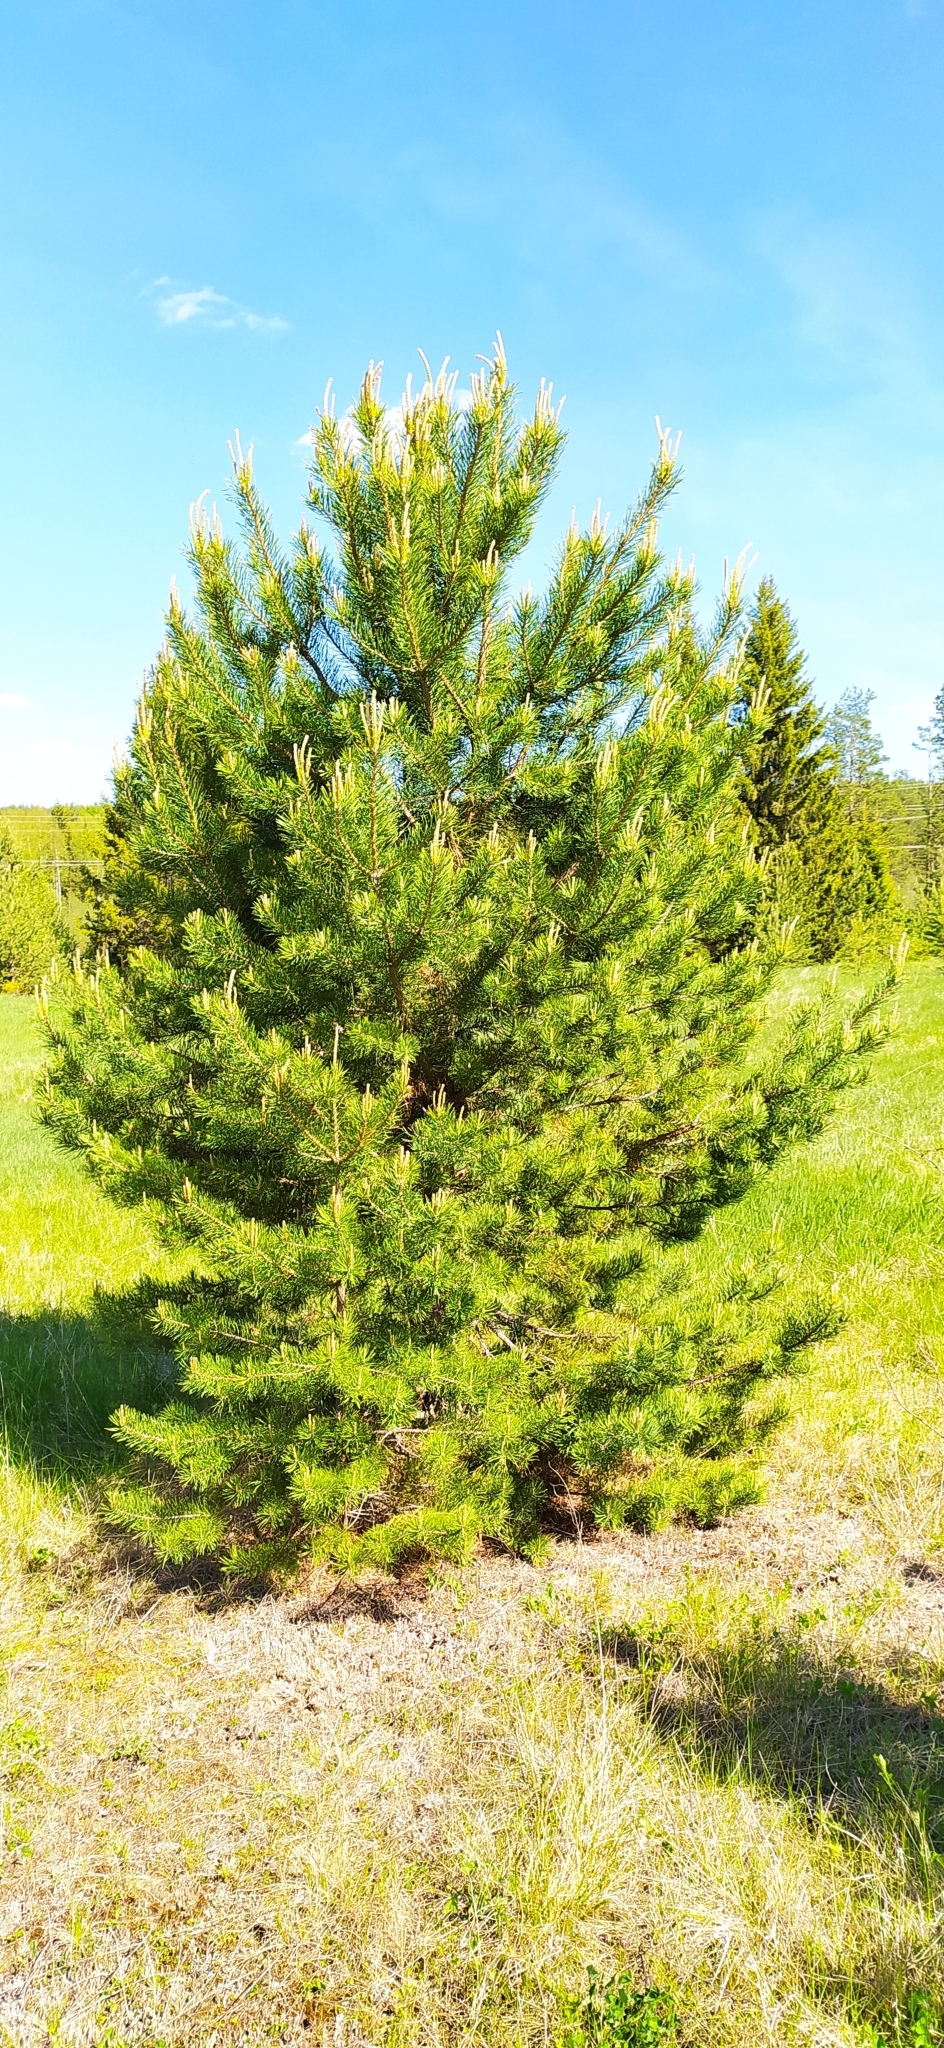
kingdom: Plantae
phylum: Tracheophyta
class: Pinopsida
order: Pinales
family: Pinaceae
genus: Pinus
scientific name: Pinus sylvestris
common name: Scots pine
